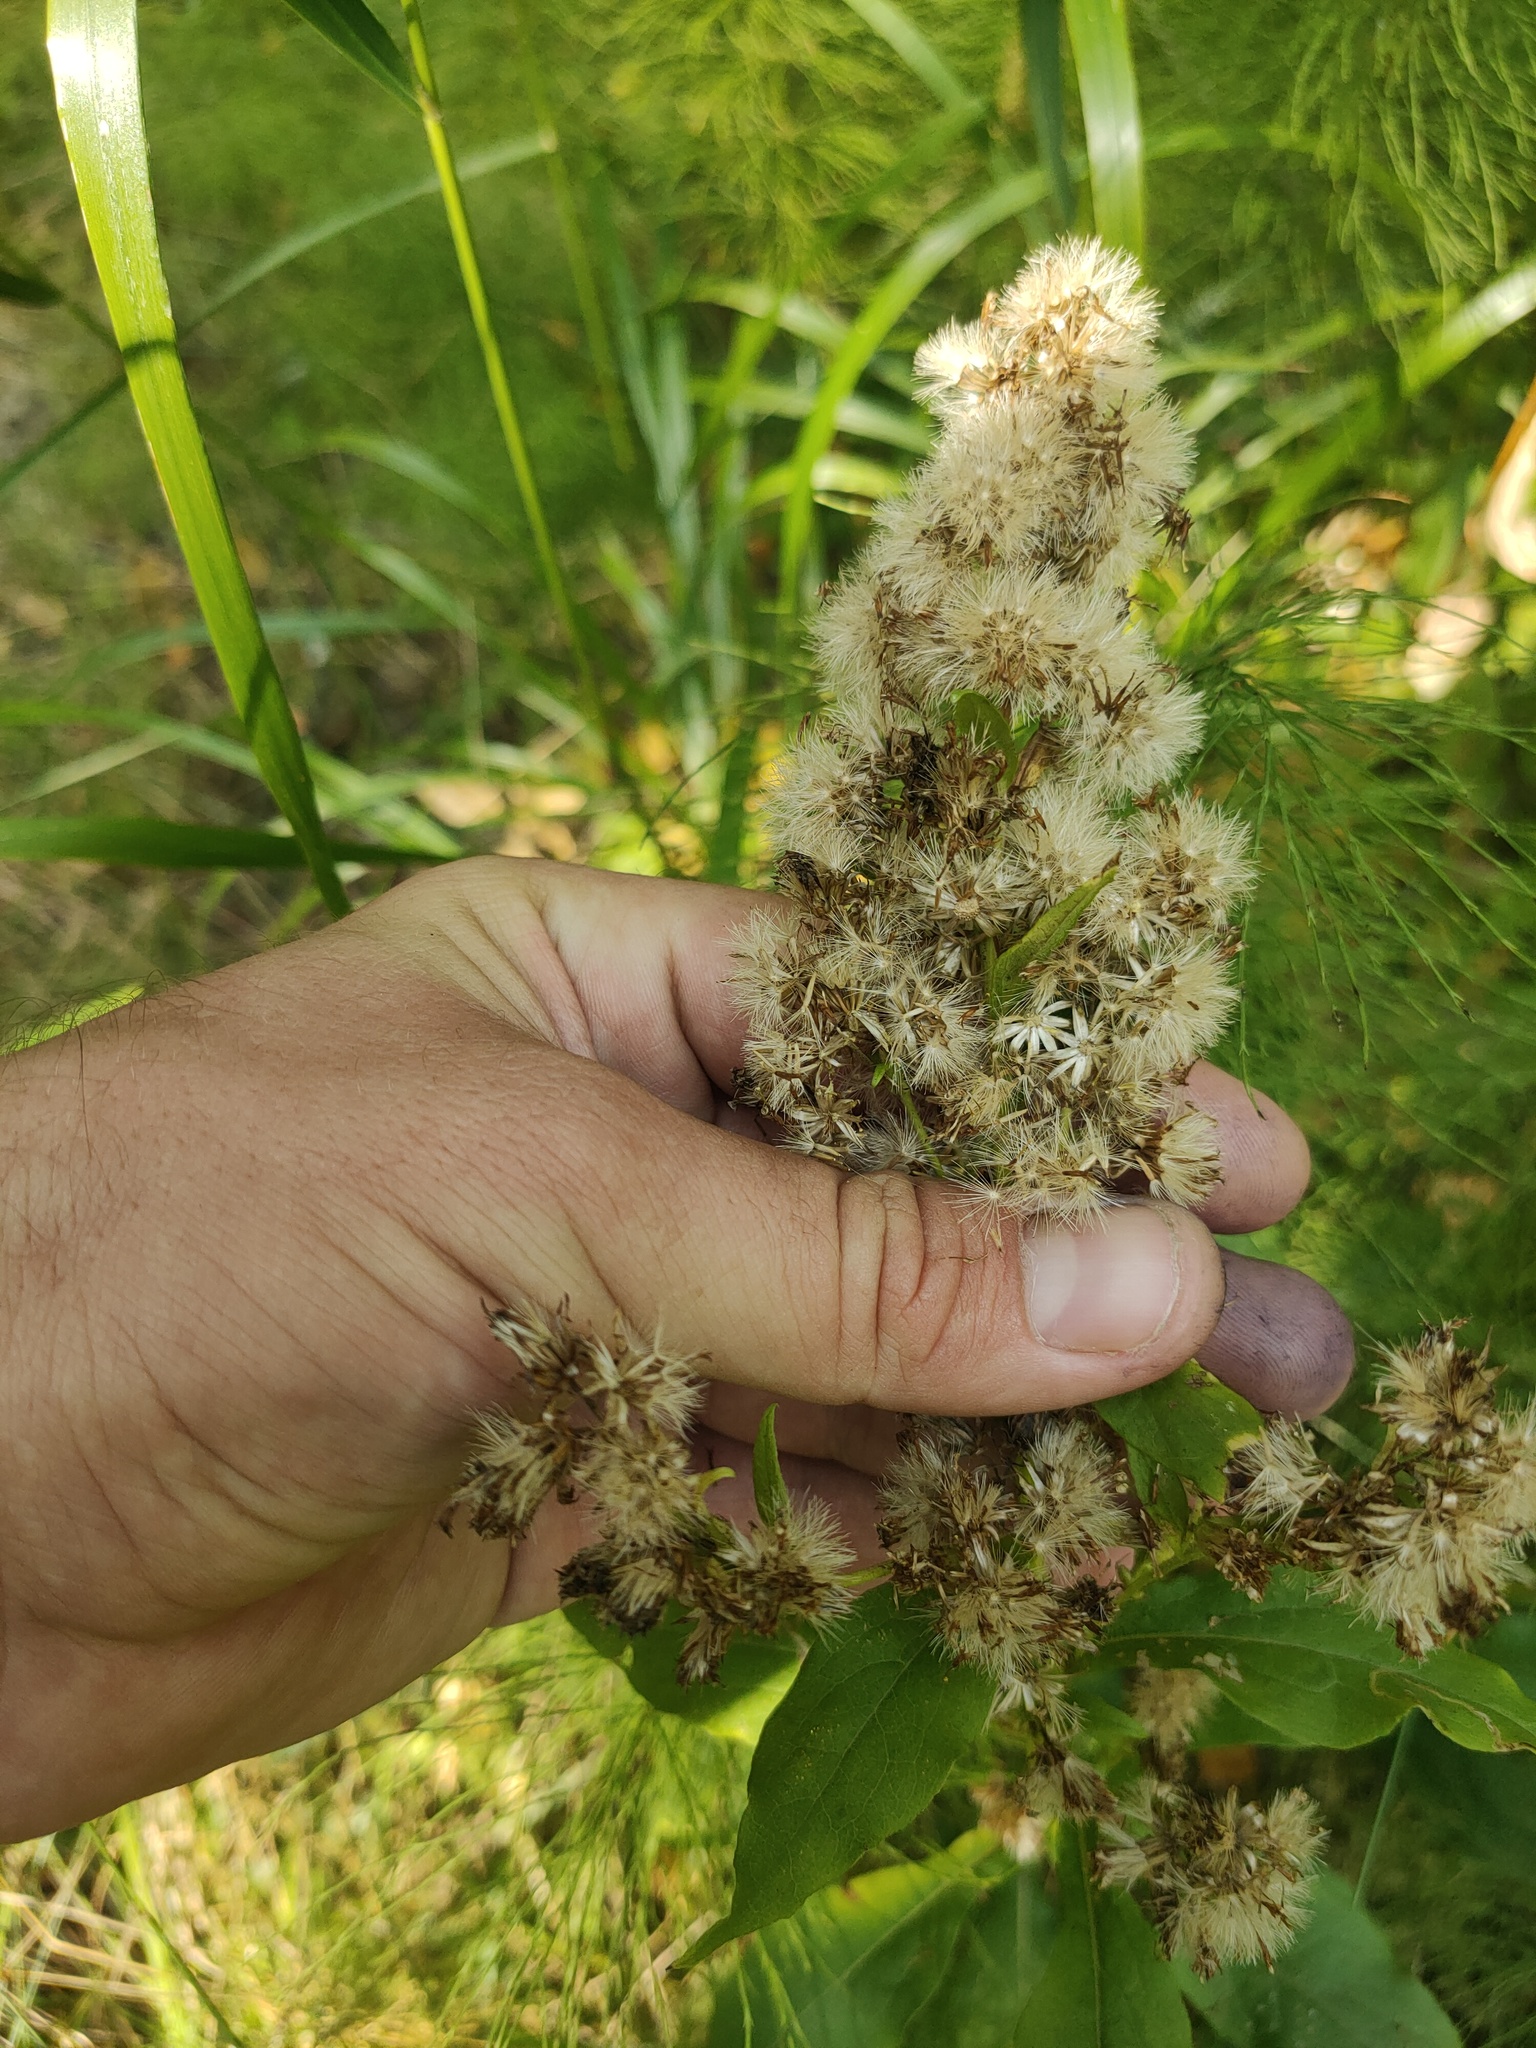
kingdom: Plantae
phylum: Tracheophyta
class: Magnoliopsida
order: Asterales
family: Asteraceae
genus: Solidago
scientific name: Solidago virgaurea
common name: Goldenrod
